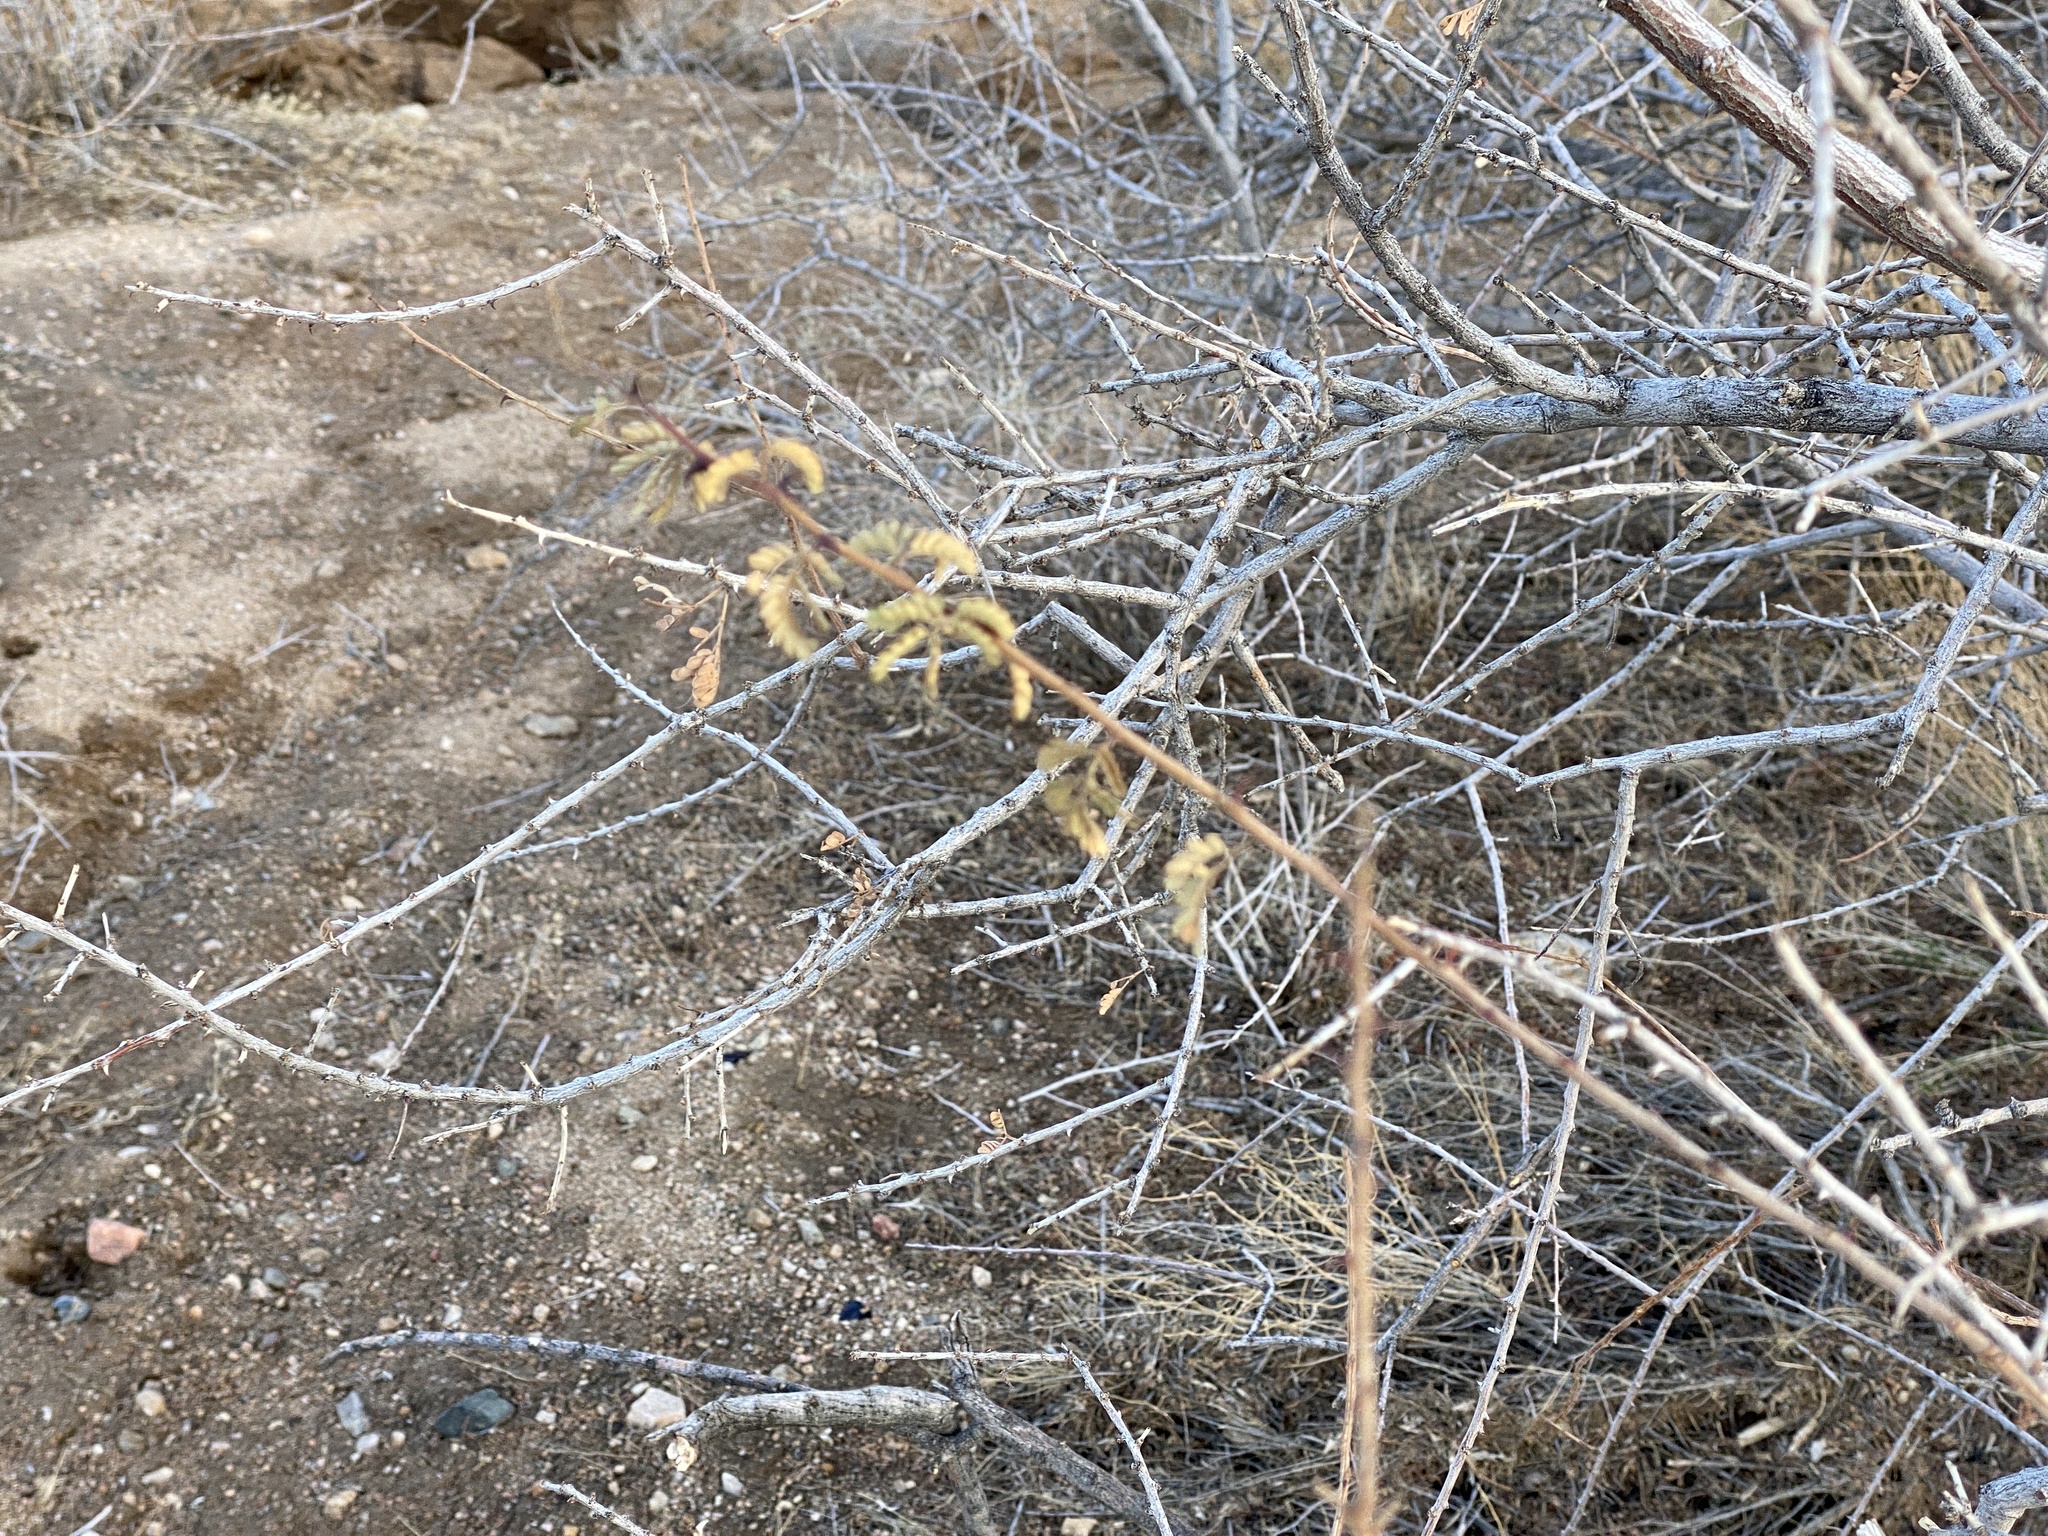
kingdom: Plantae
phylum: Tracheophyta
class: Magnoliopsida
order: Fabales
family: Fabaceae
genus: Senegalia
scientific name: Senegalia greggii
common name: Texas-mimosa
